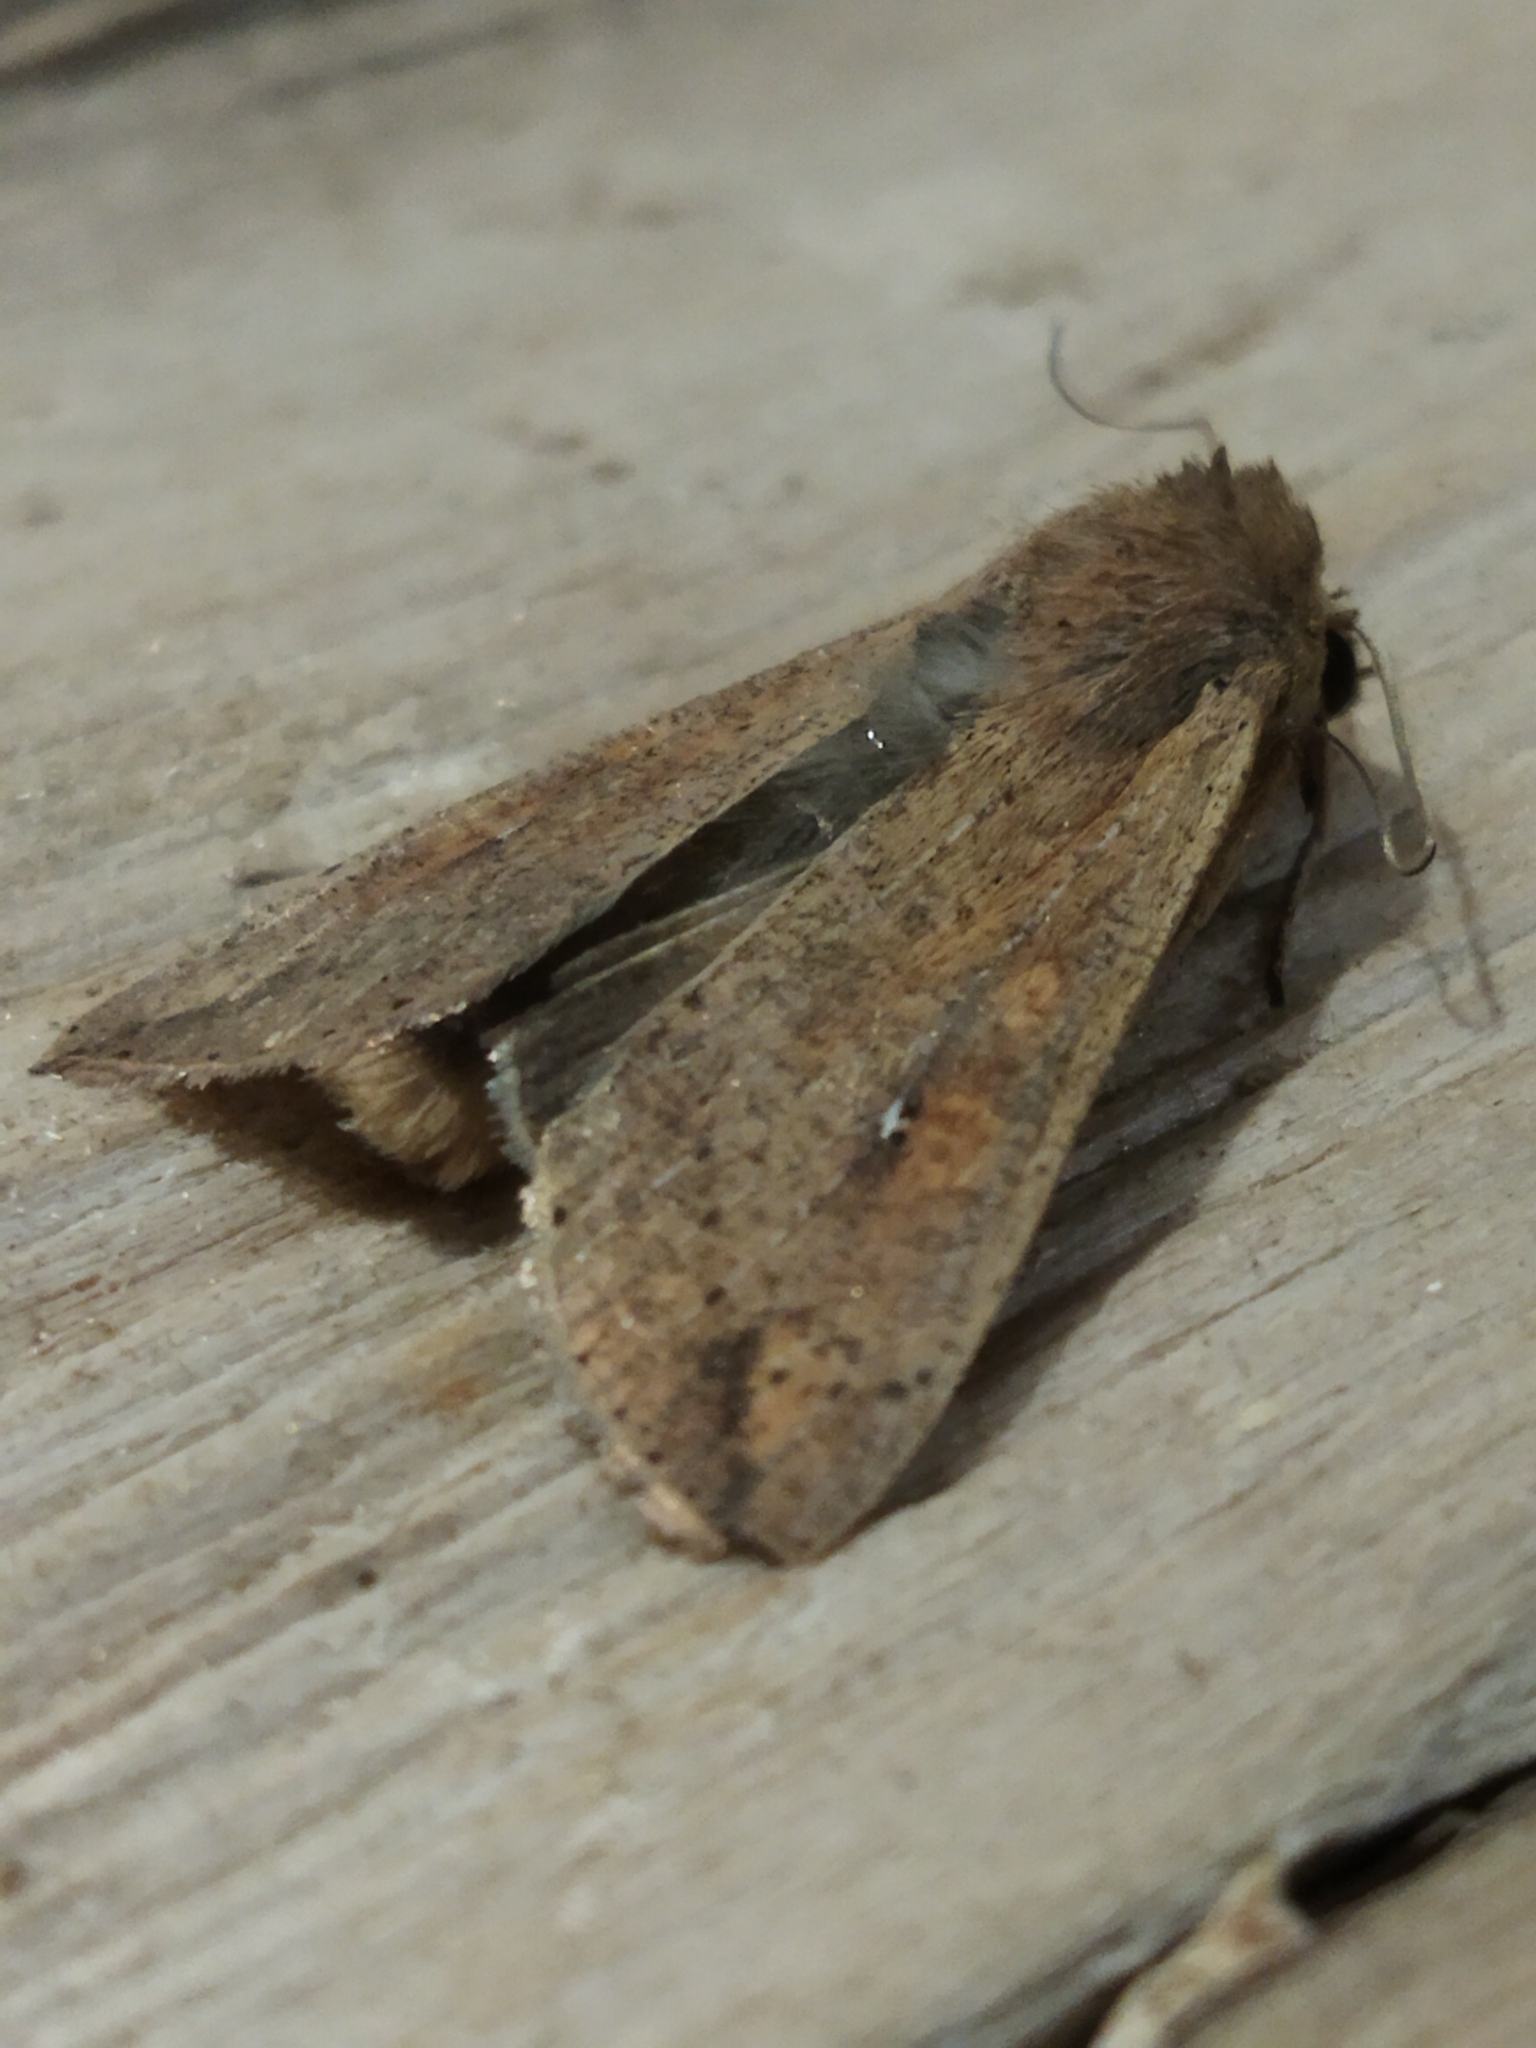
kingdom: Animalia
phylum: Arthropoda
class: Insecta
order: Lepidoptera
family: Noctuidae
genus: Mythimna
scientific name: Mythimna unipuncta
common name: White-speck
